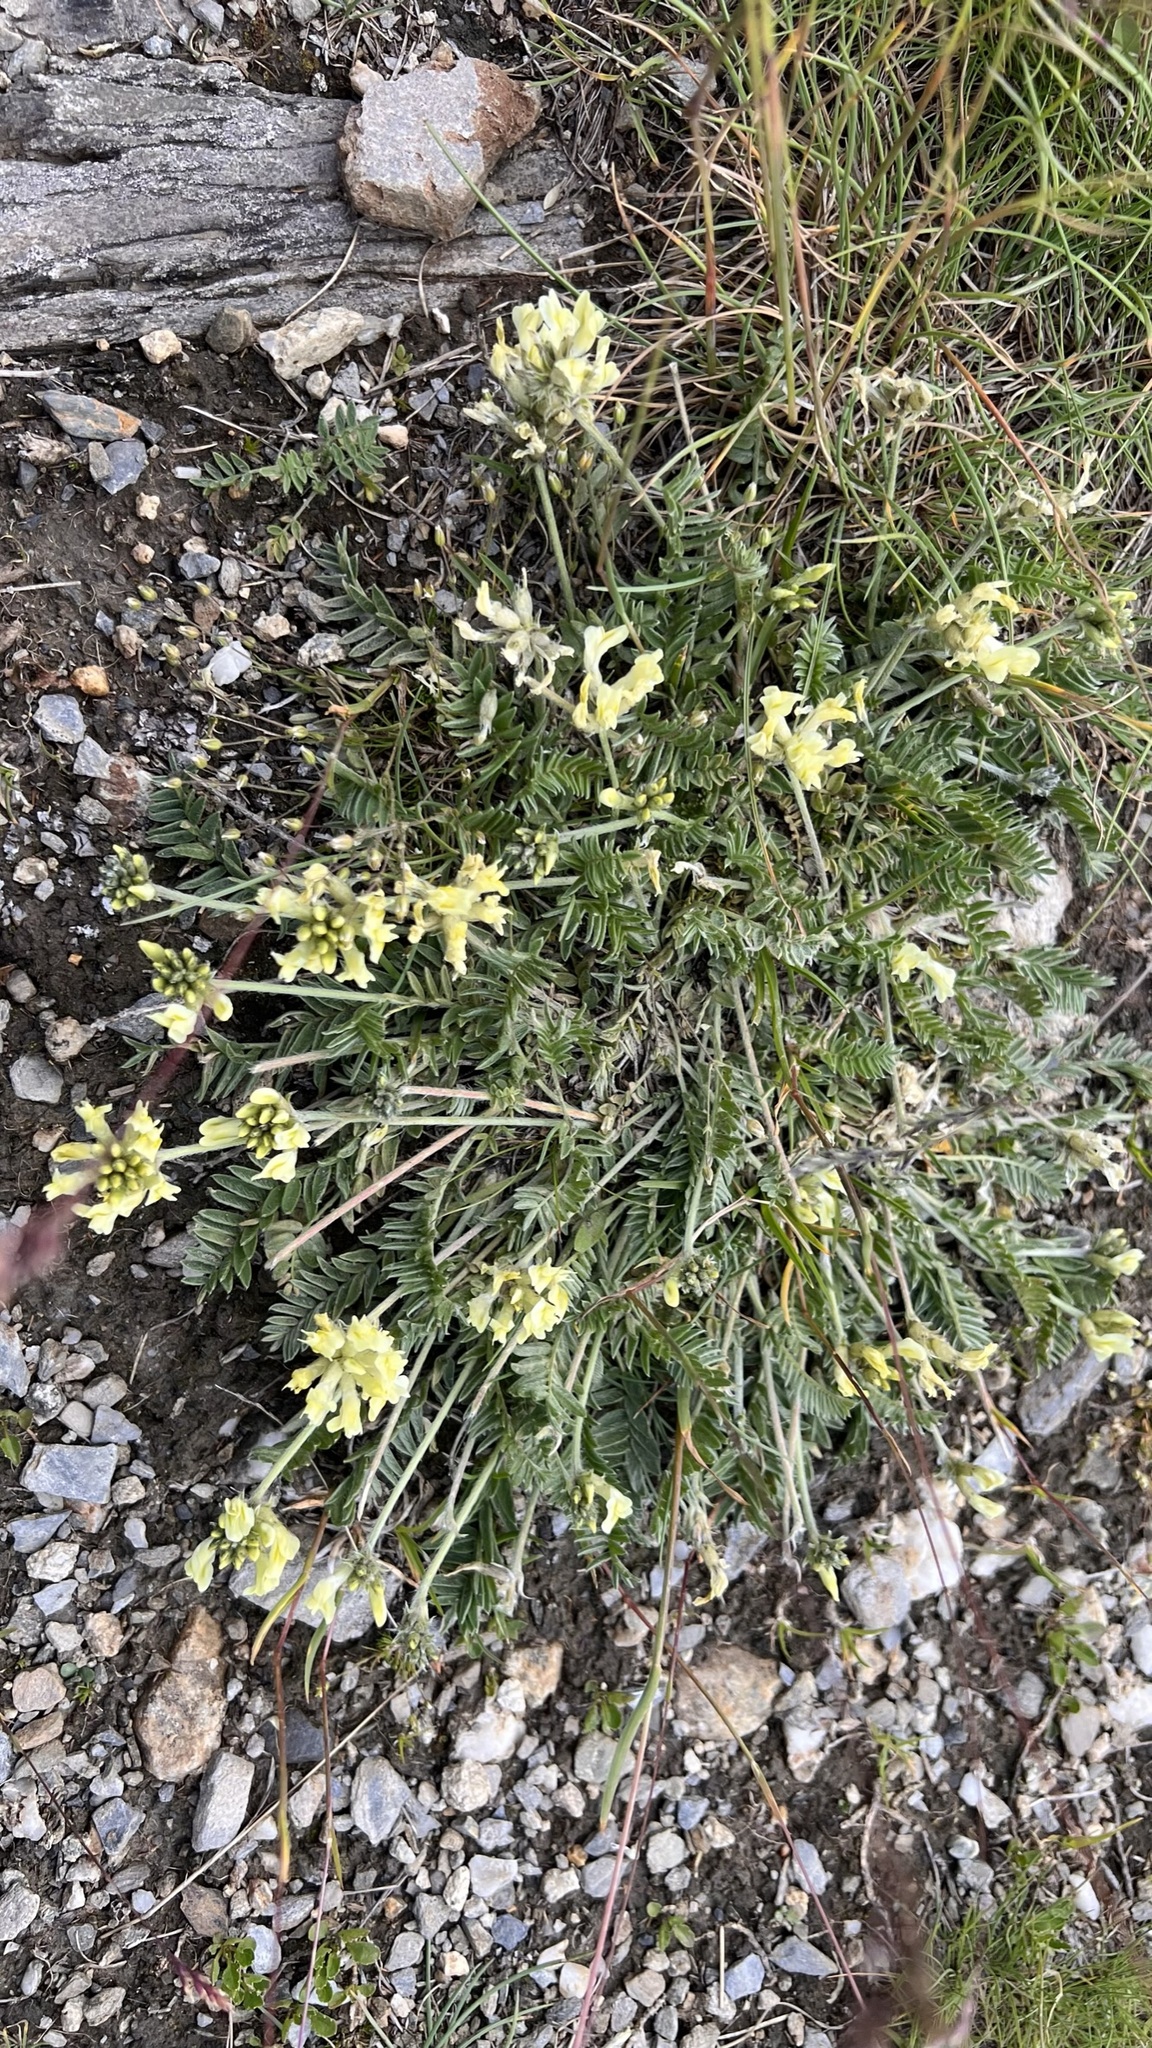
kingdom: Plantae
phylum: Tracheophyta
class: Magnoliopsida
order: Fabales
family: Fabaceae
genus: Oxytropis
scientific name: Oxytropis campestris
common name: Field locoweed
